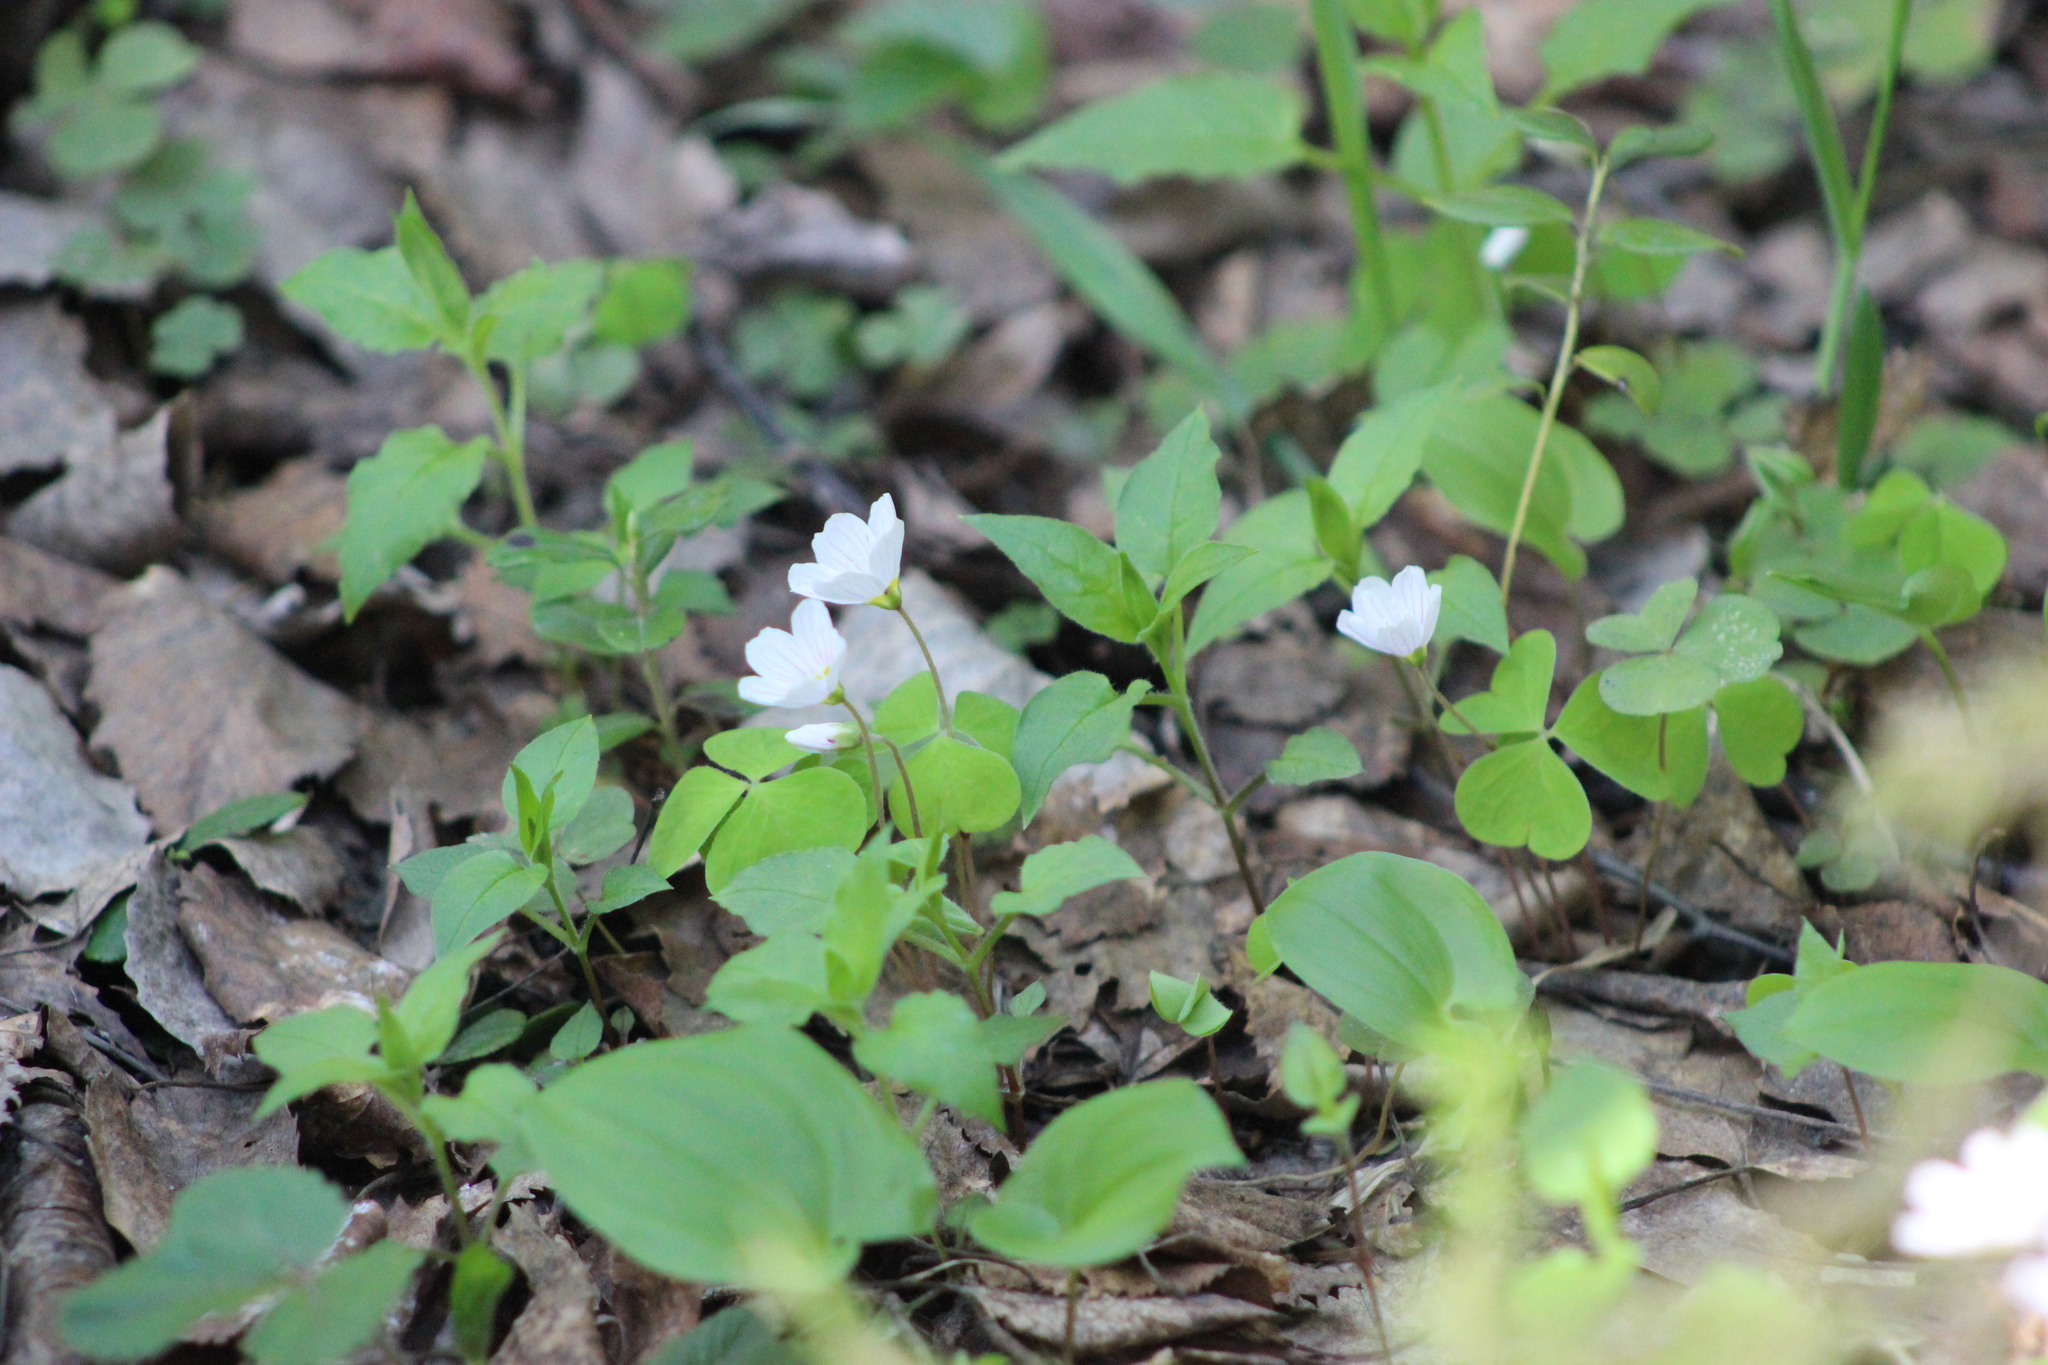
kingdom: Plantae
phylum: Tracheophyta
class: Magnoliopsida
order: Oxalidales
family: Oxalidaceae
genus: Oxalis
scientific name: Oxalis acetosella
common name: Wood-sorrel
